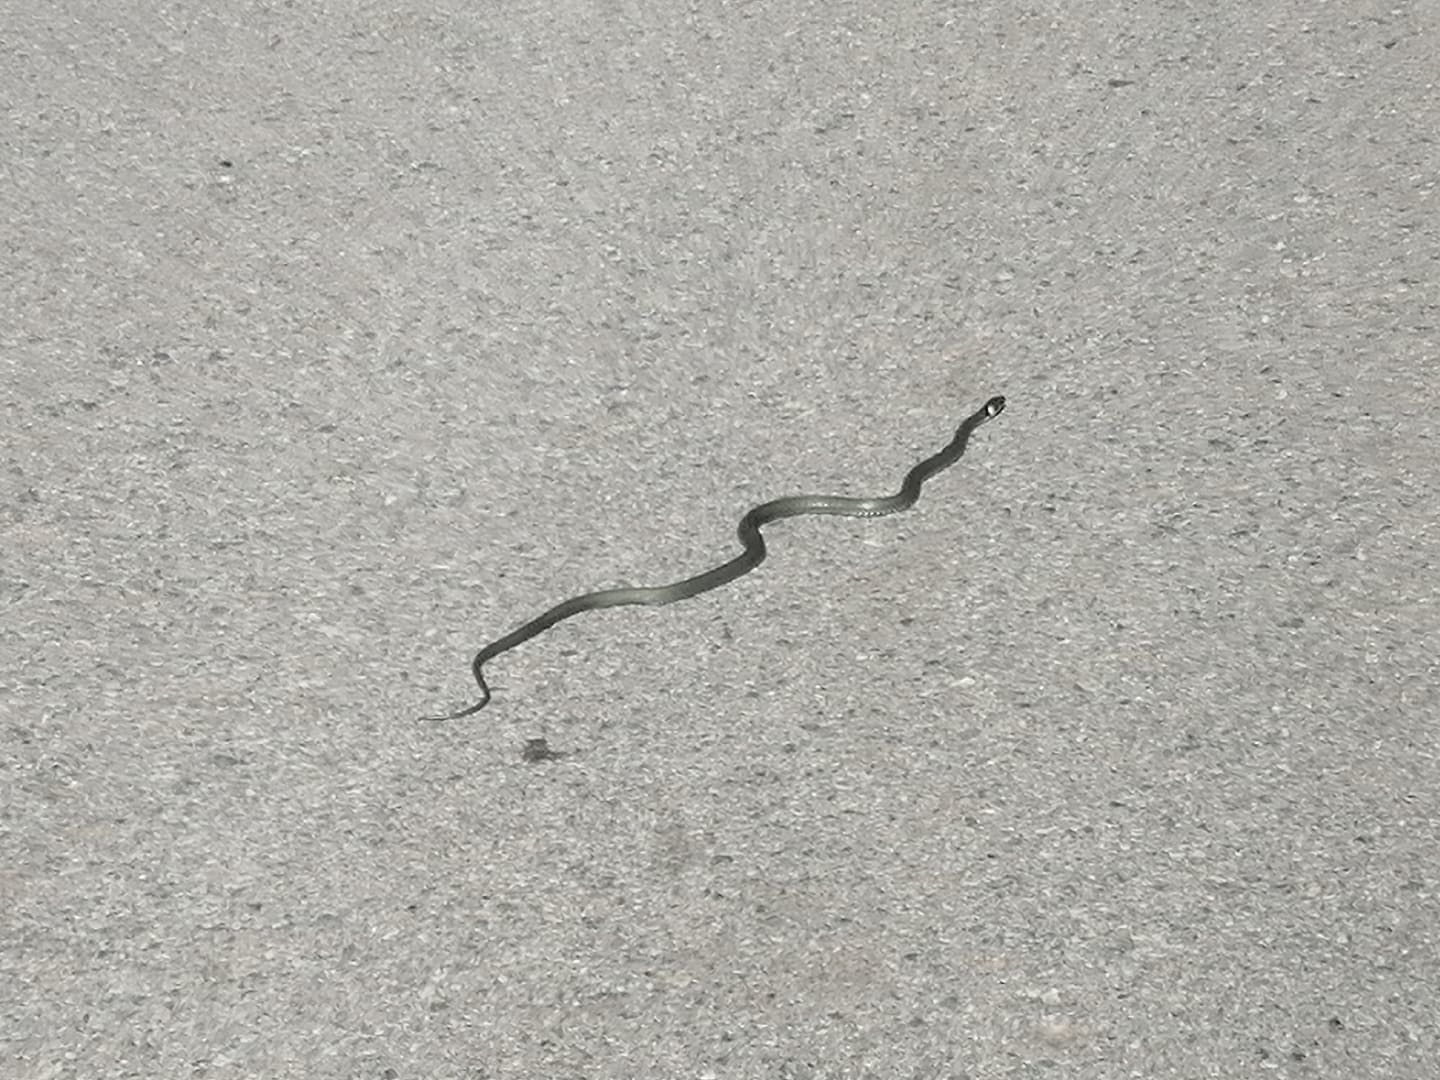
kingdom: Animalia
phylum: Chordata
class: Squamata
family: Colubridae
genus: Natrix
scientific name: Natrix natrix
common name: Grass snake
